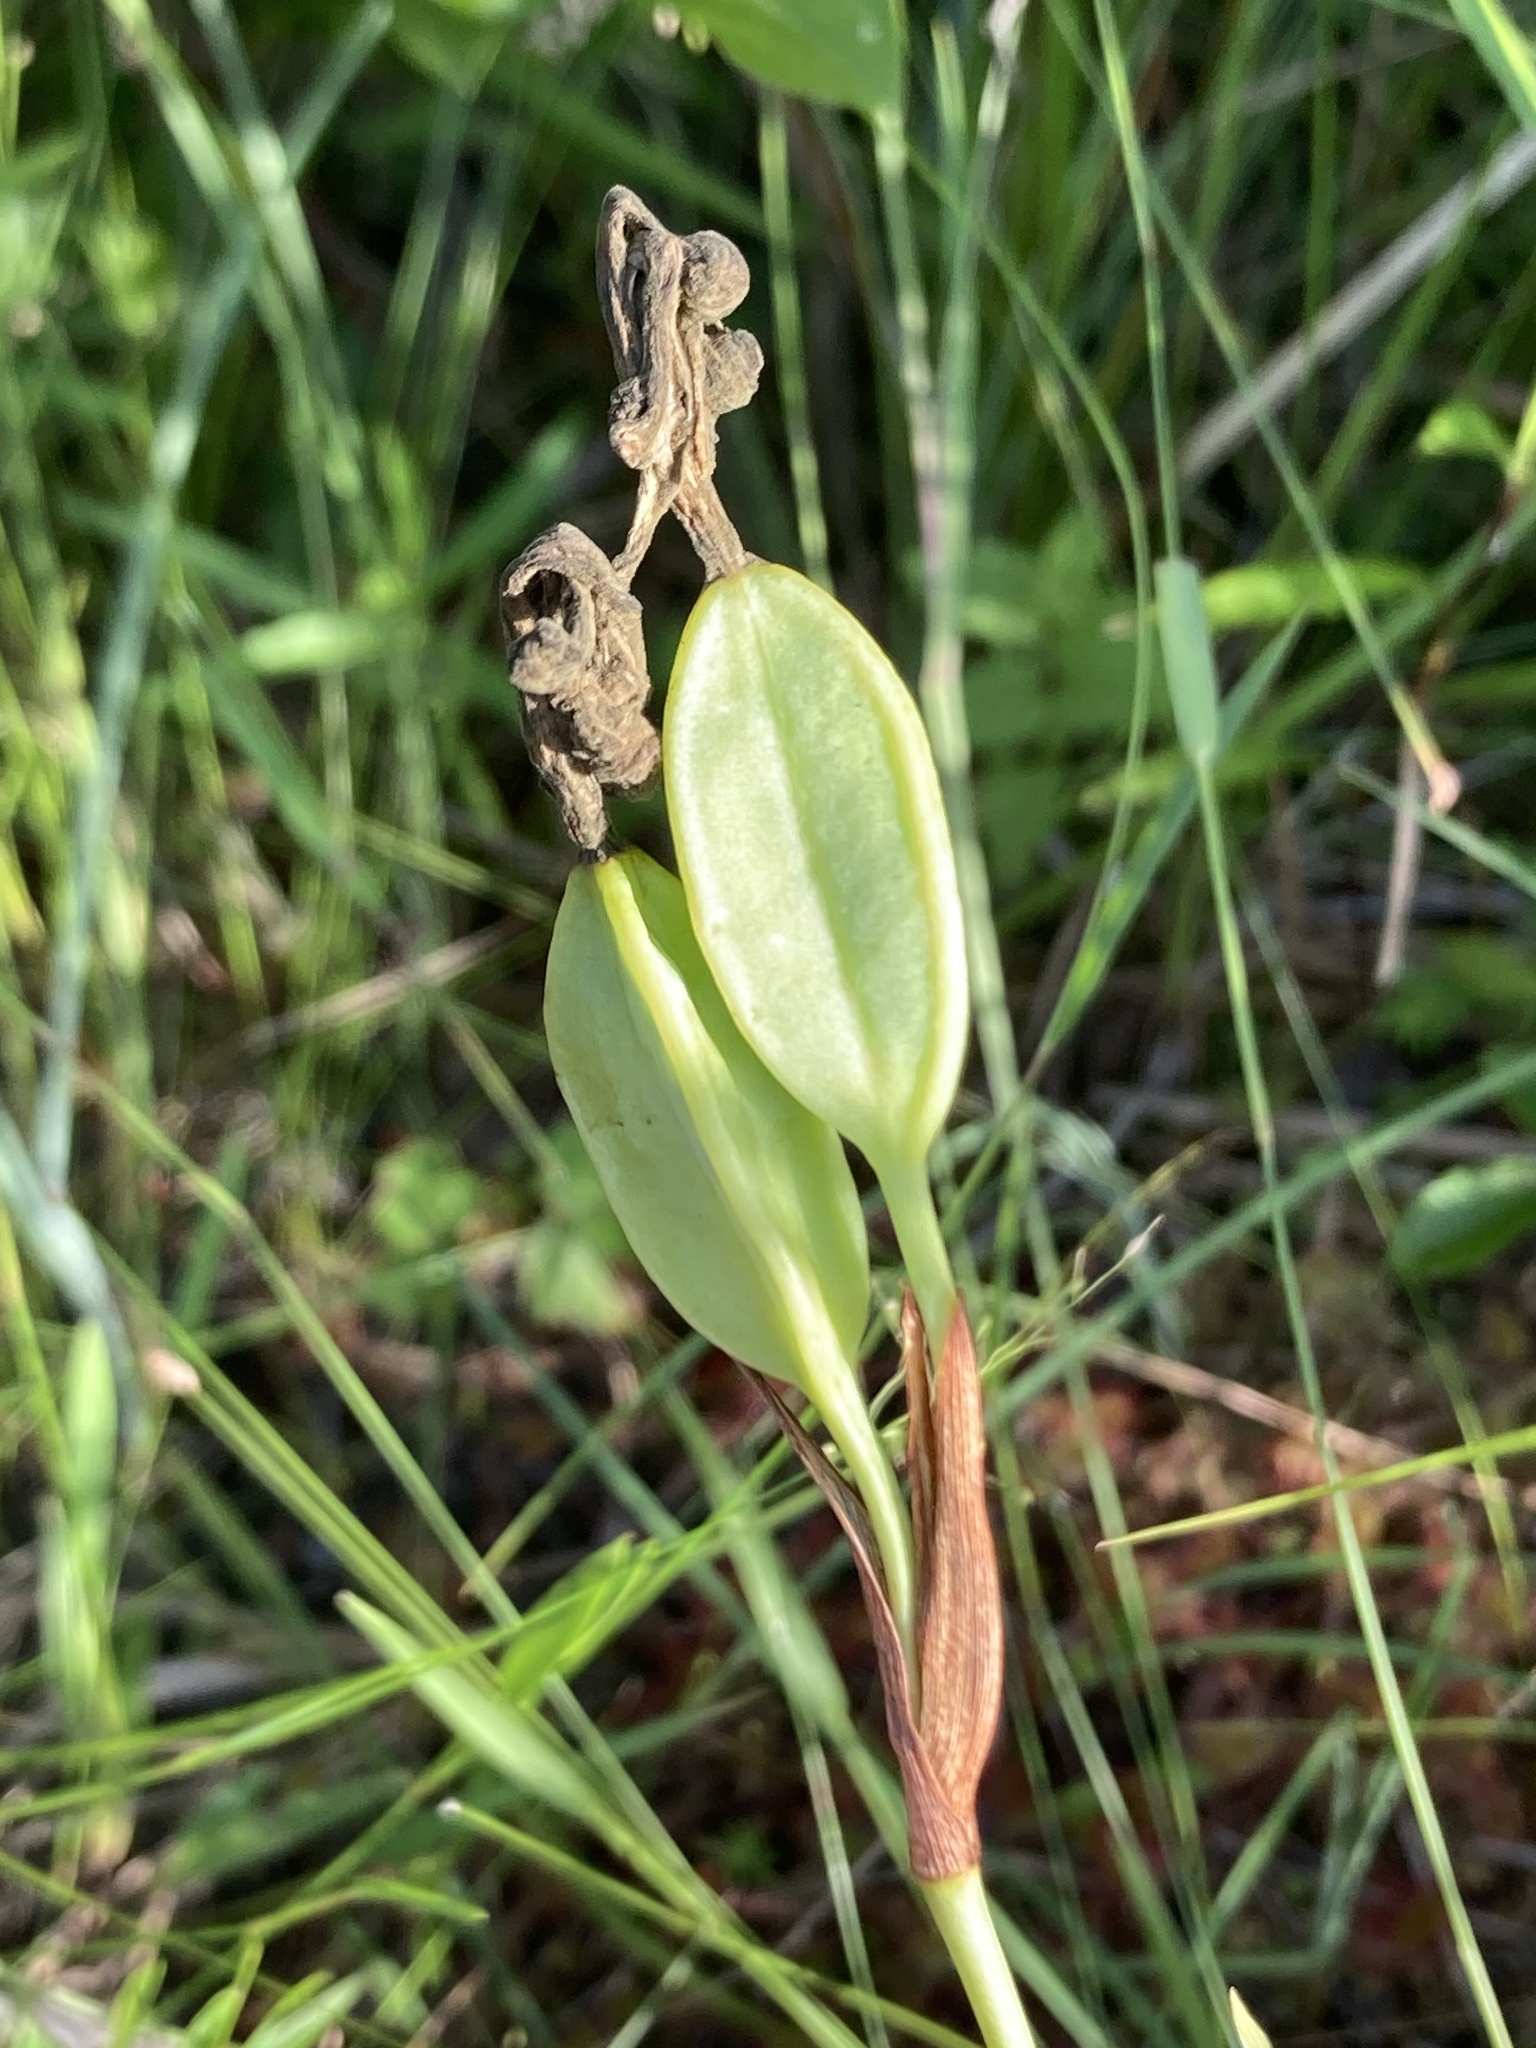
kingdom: Plantae
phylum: Tracheophyta
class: Liliopsida
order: Asparagales
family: Orchidaceae
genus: Pogonia
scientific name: Pogonia ophioglossoides
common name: Rose pogonia
